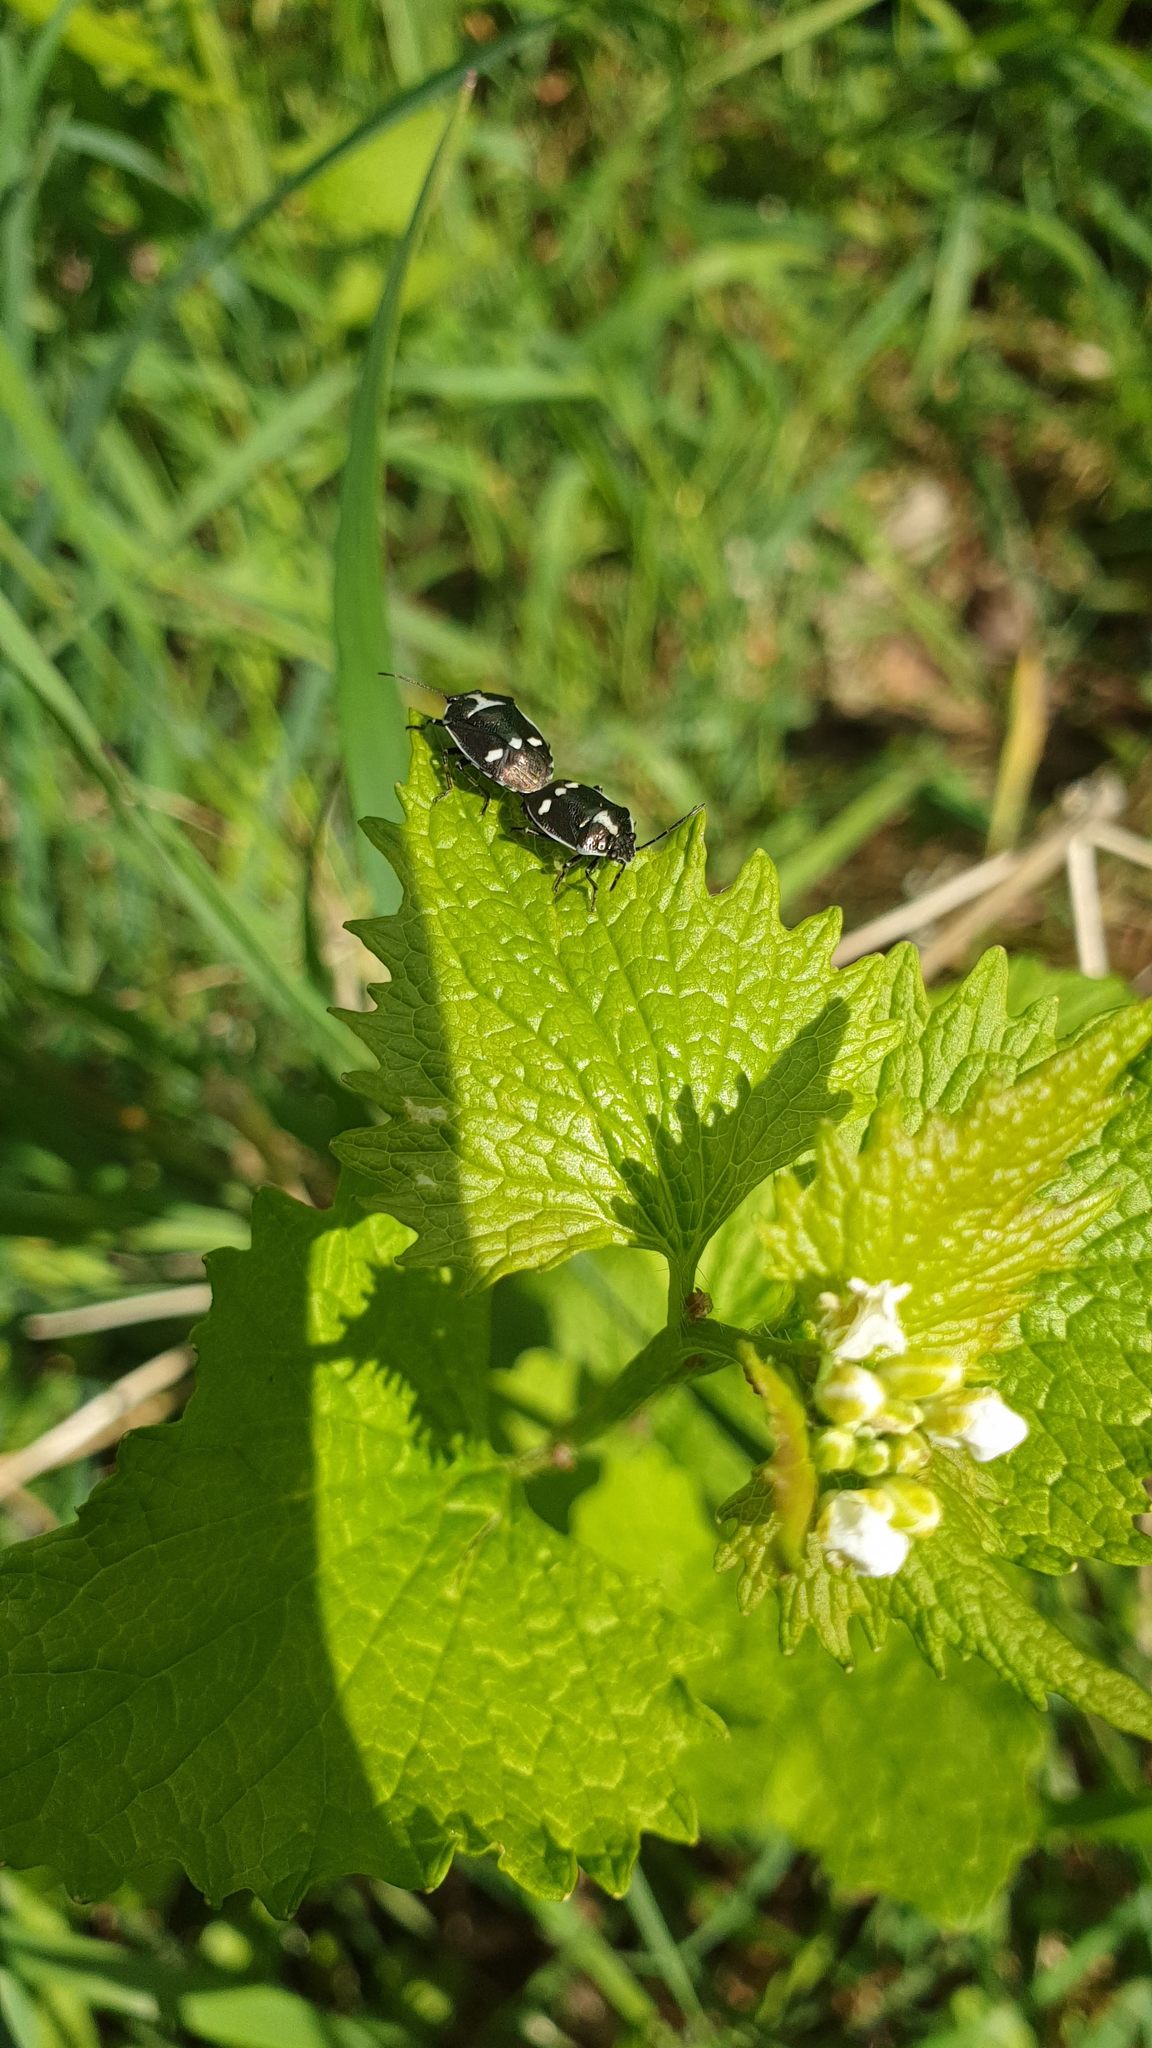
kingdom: Animalia
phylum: Arthropoda
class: Insecta
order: Hemiptera
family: Pentatomidae
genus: Eurydema
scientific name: Eurydema oleracea
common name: Cabbage bug
